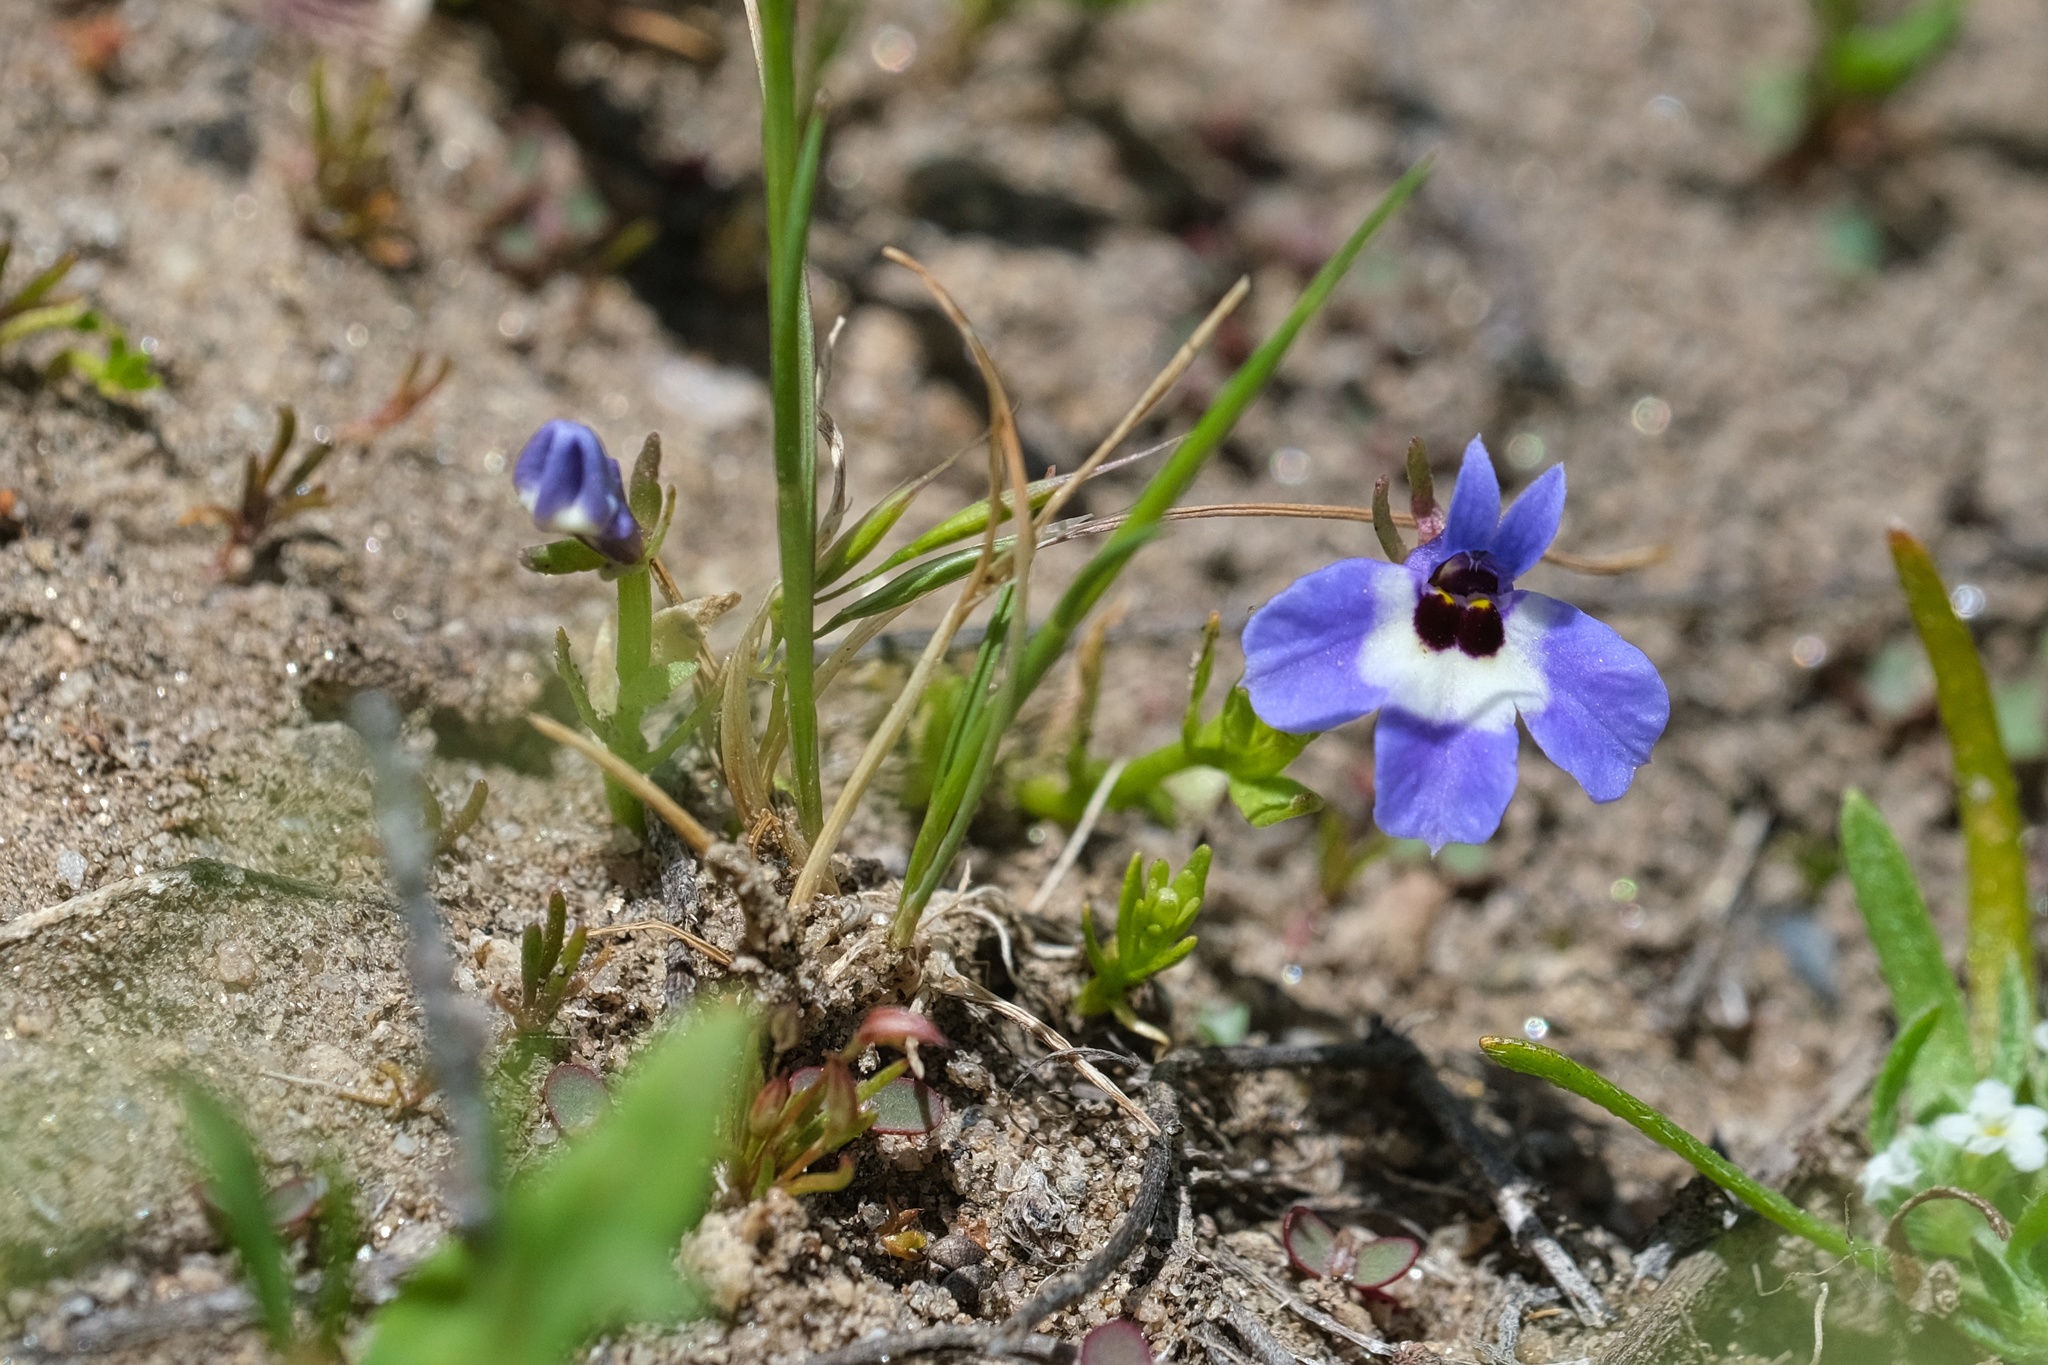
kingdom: Plantae
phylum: Tracheophyta
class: Magnoliopsida
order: Asterales
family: Campanulaceae
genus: Downingia
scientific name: Downingia concolor
